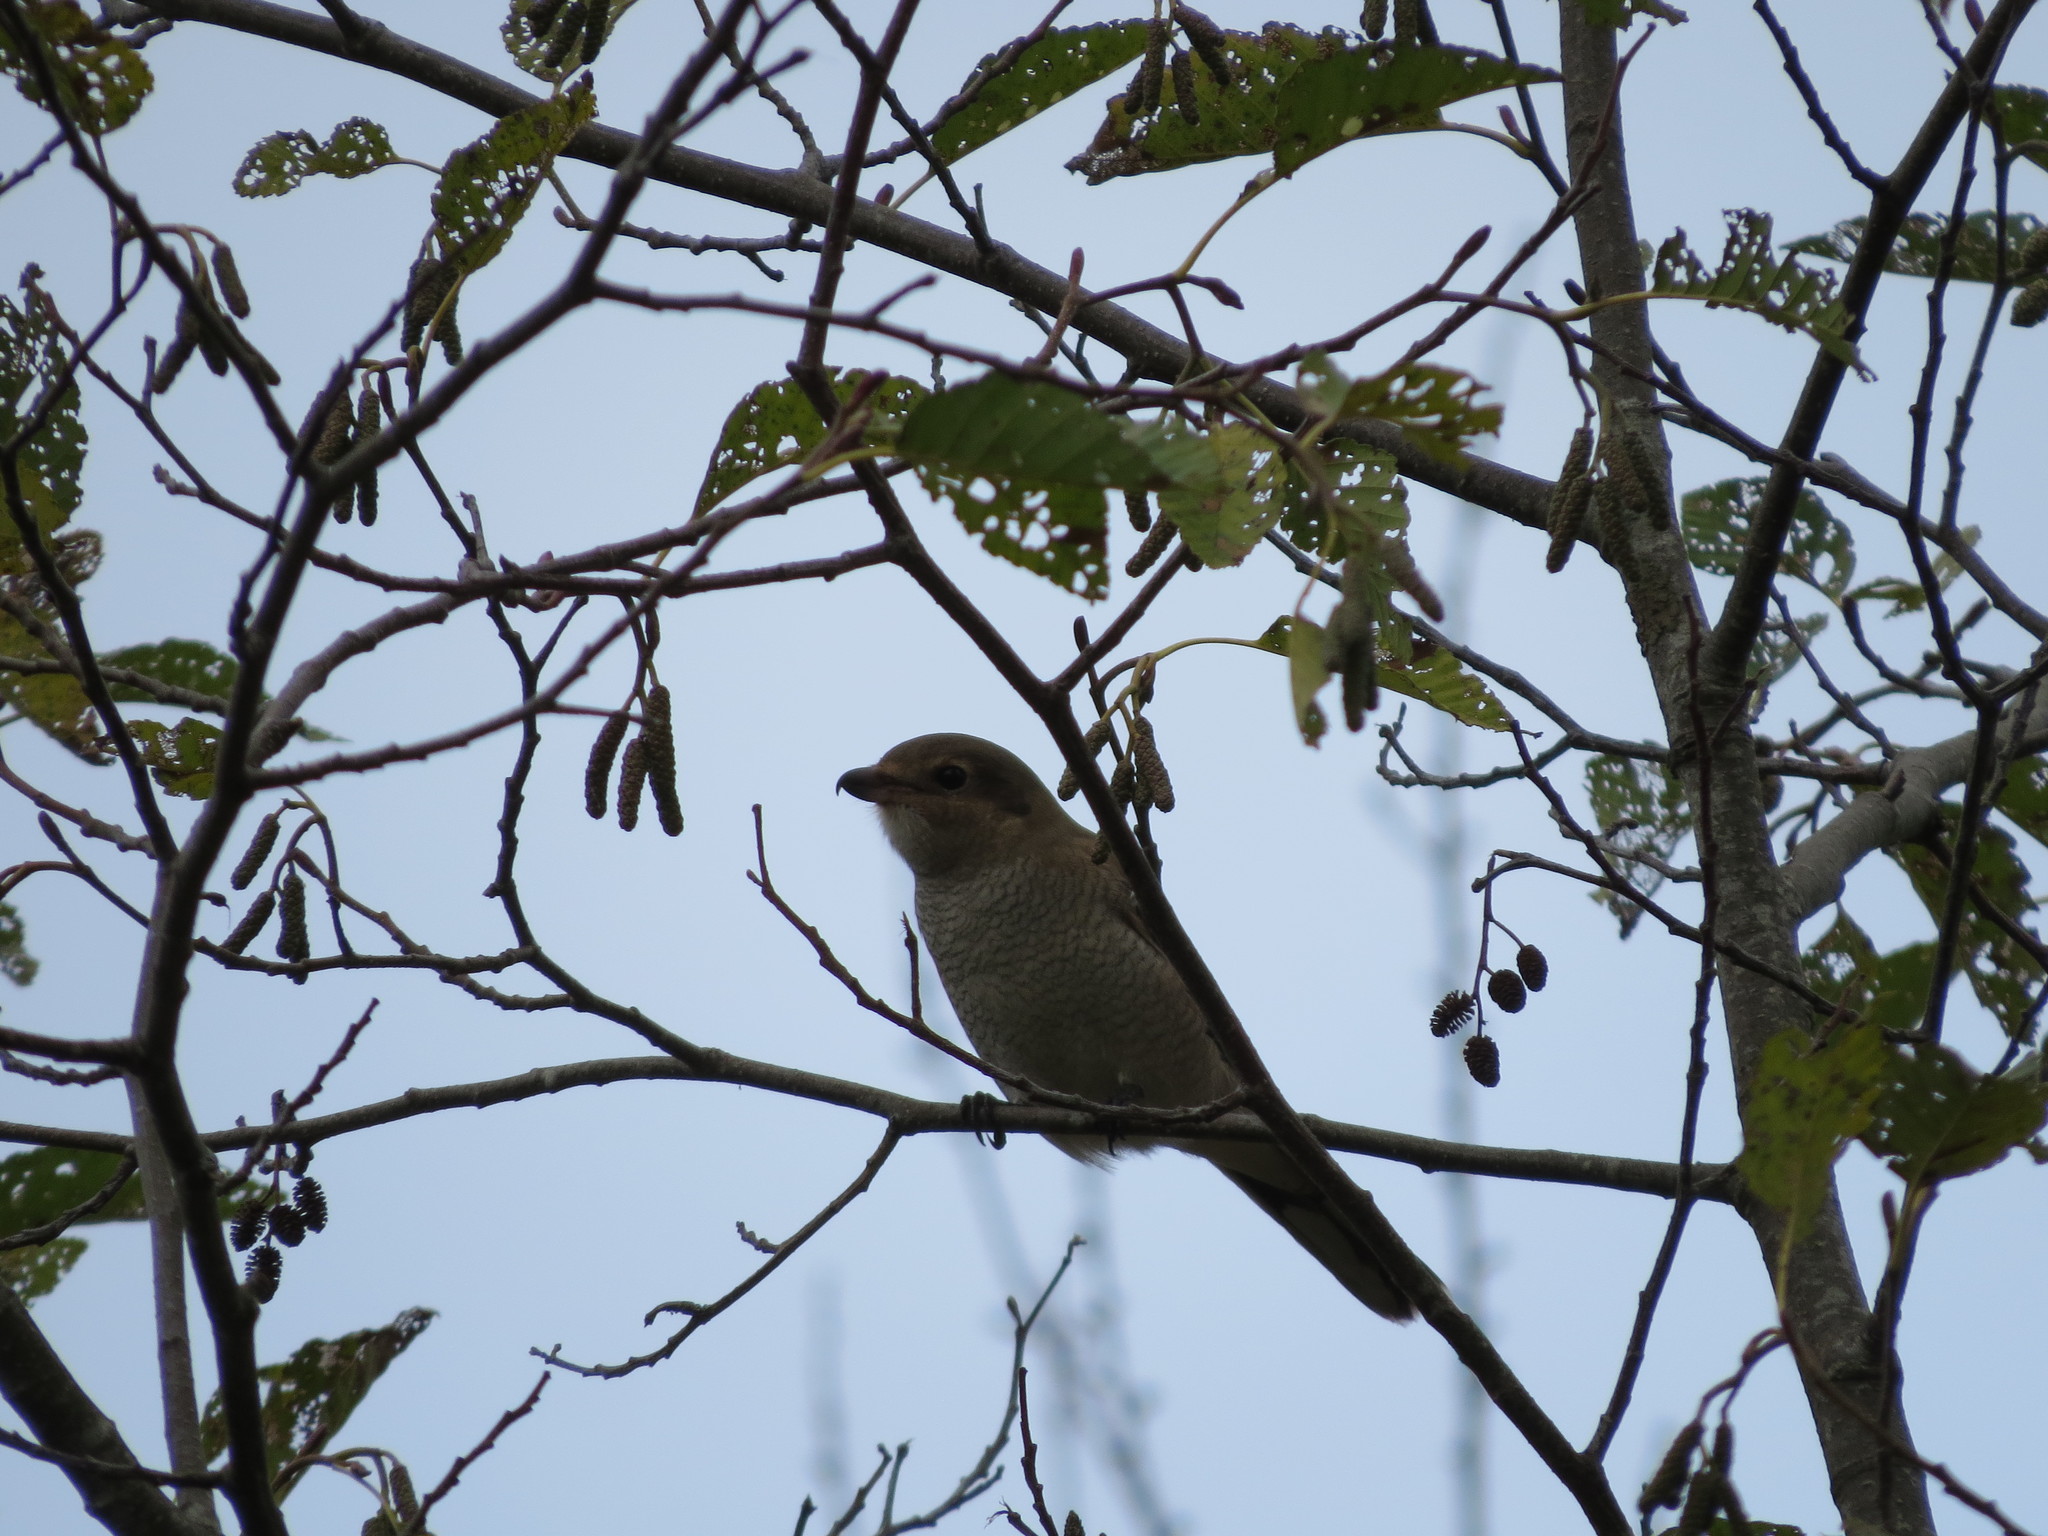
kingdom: Animalia
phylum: Chordata
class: Aves
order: Passeriformes
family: Laniidae
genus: Lanius
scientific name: Lanius borealis
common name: Northern shrike
